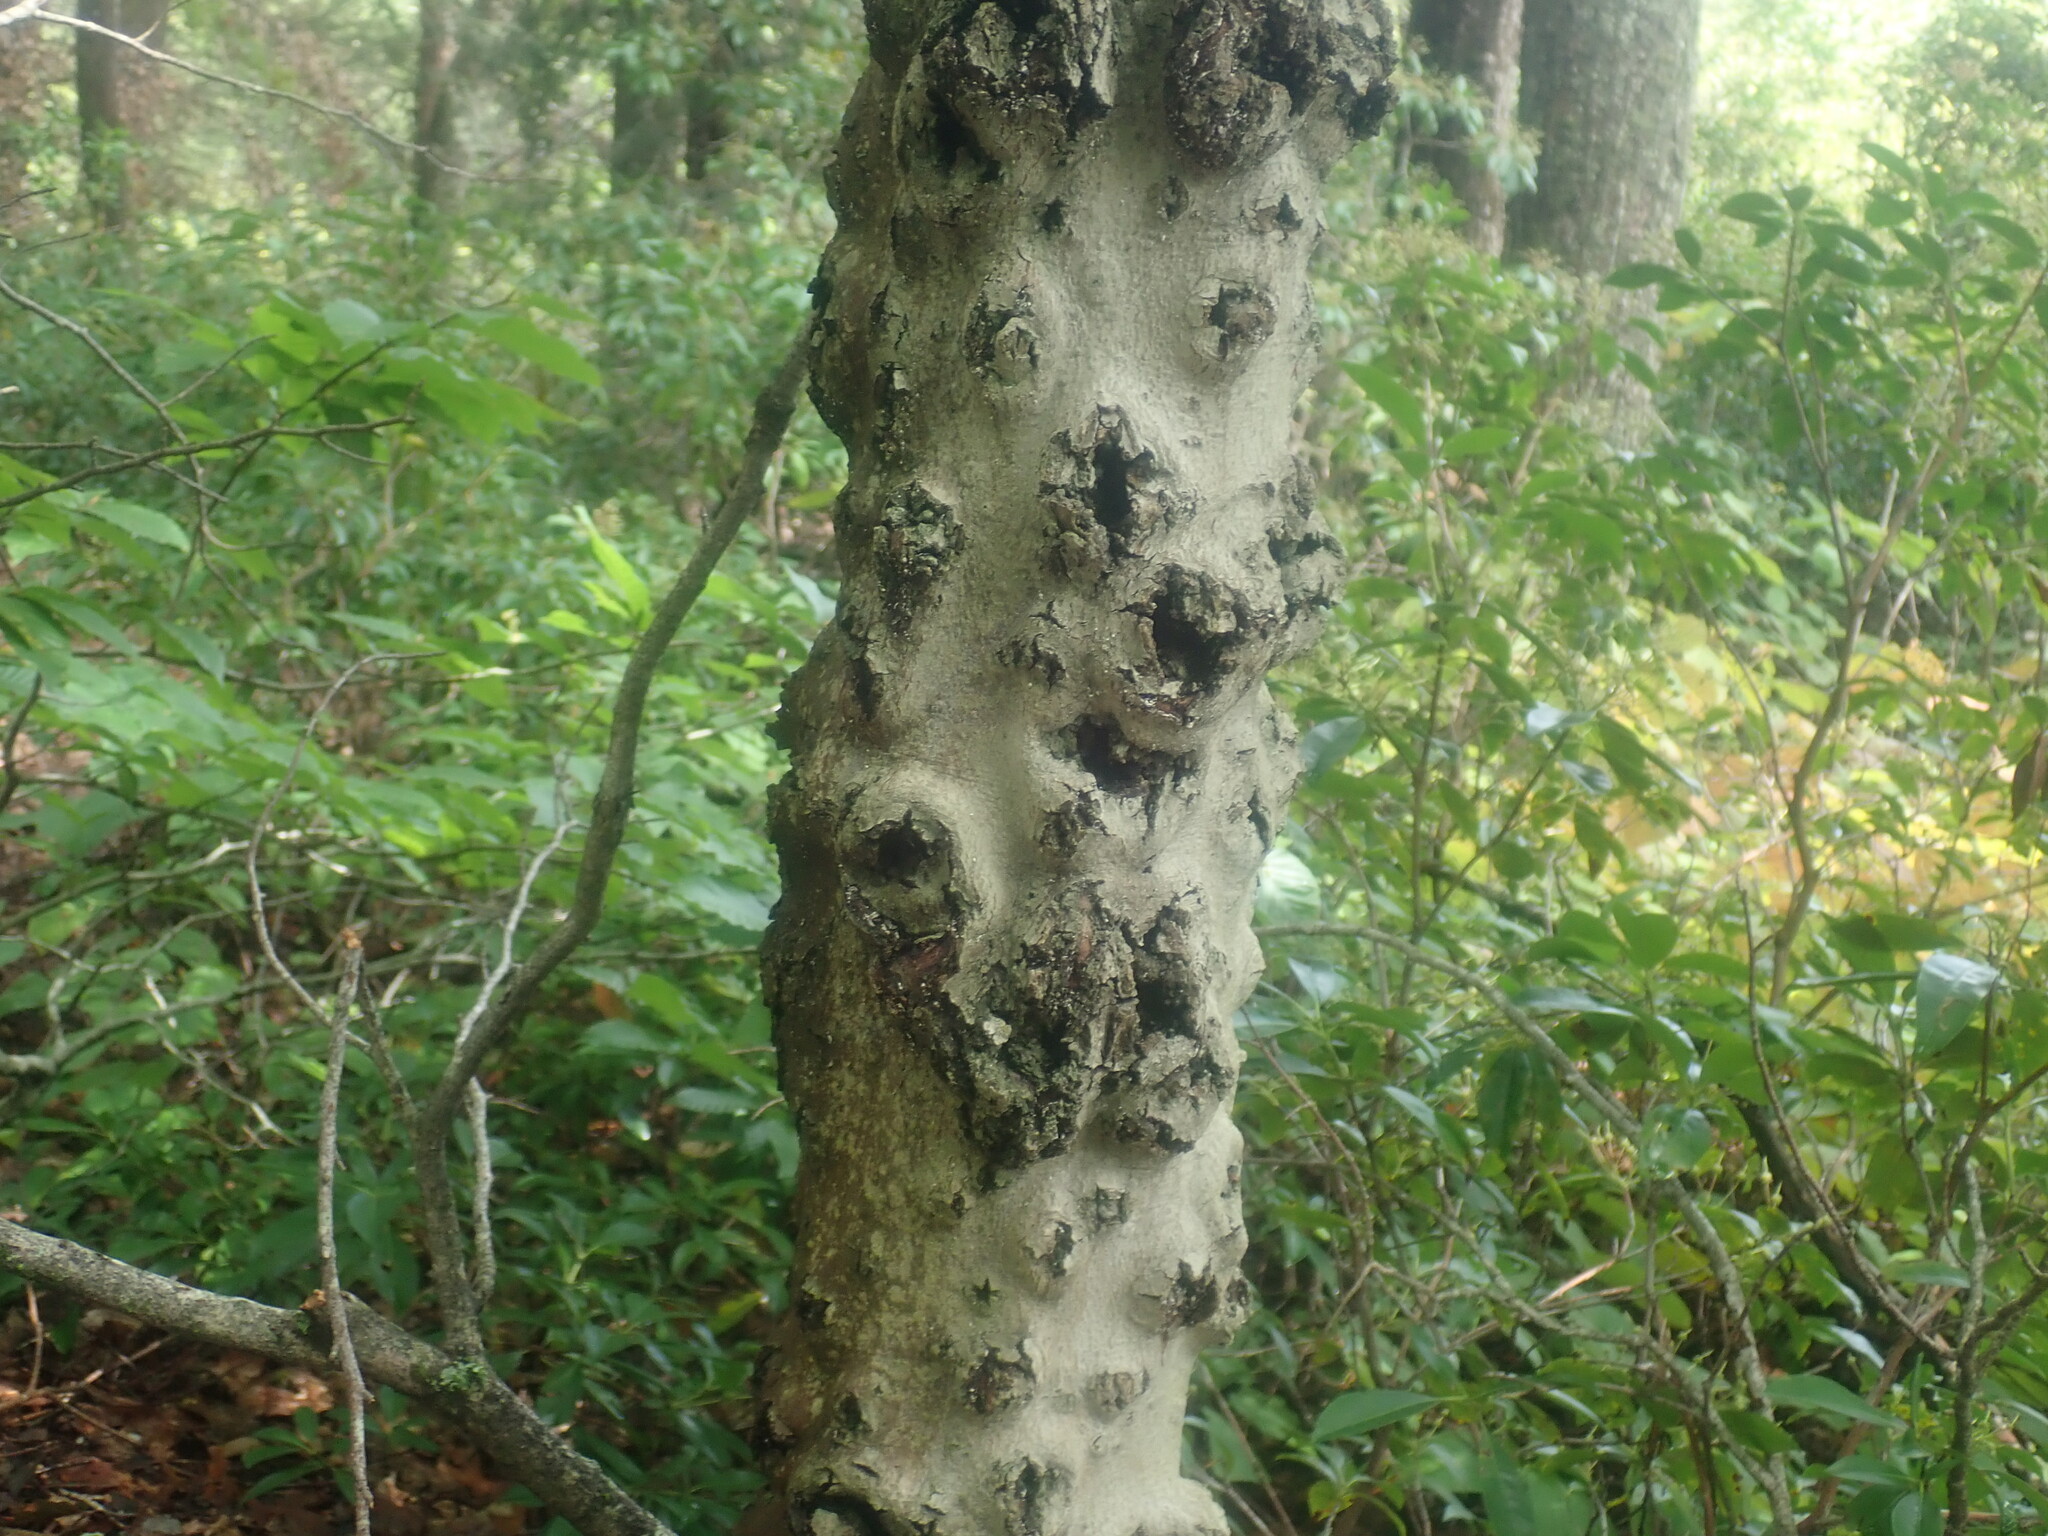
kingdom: Fungi
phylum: Ascomycota
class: Sordariomycetes
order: Hypocreales
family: Nectriaceae
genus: Neonectria
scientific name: Neonectria faginata
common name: Beech bark canker
